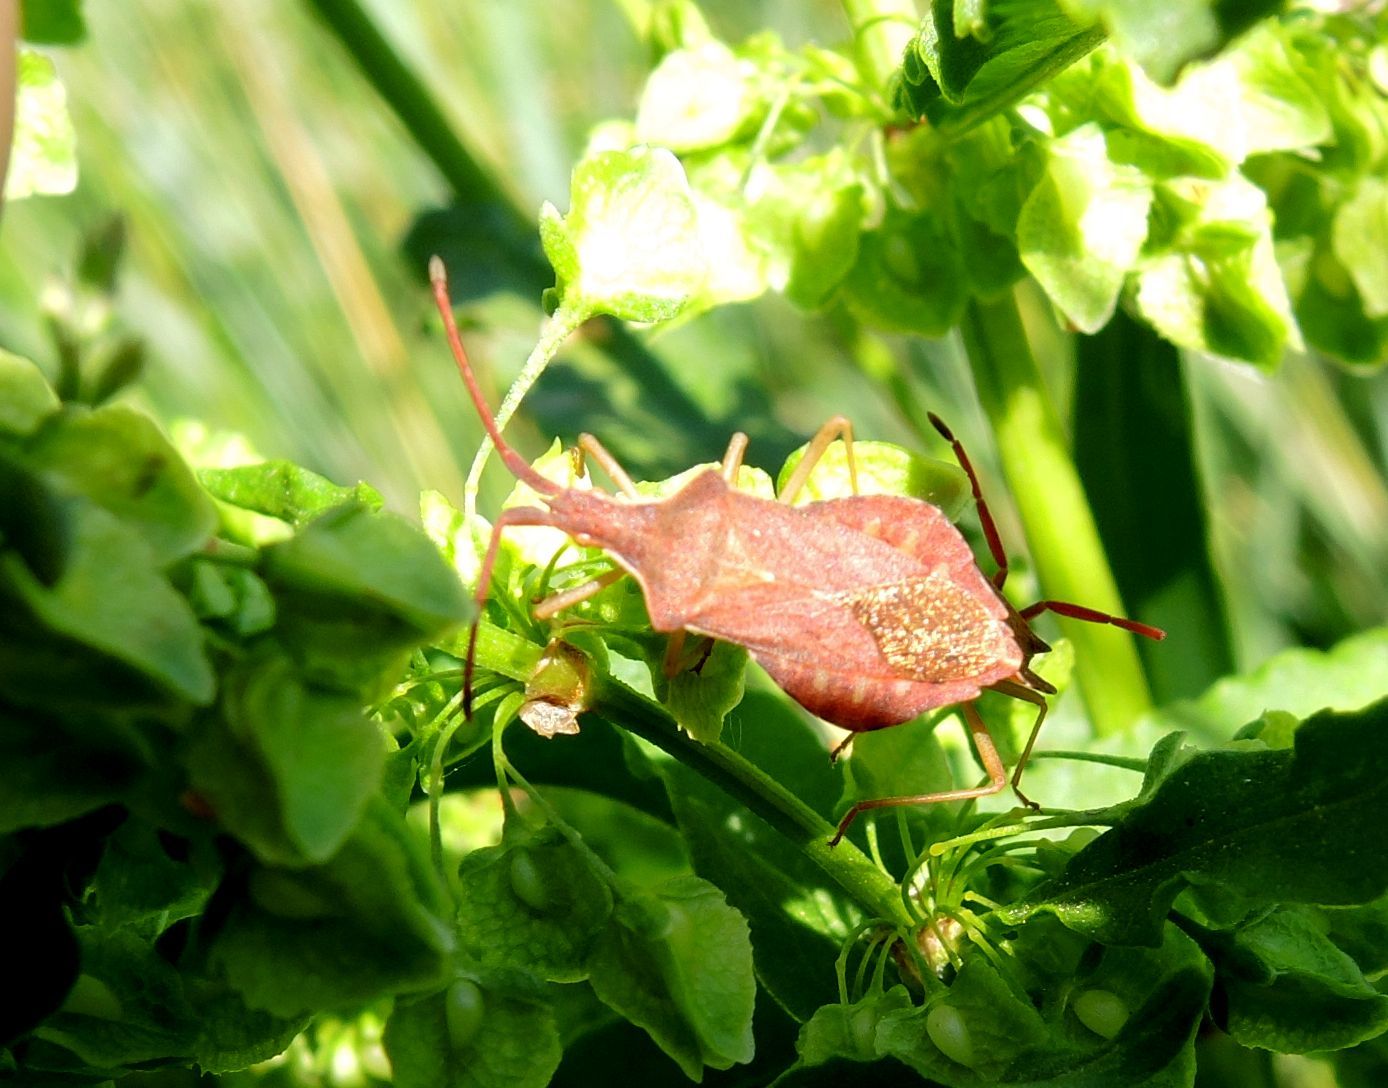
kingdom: Animalia
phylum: Arthropoda
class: Insecta
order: Hemiptera
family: Coreidae
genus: Haploprocta
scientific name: Haploprocta sulcicornis
